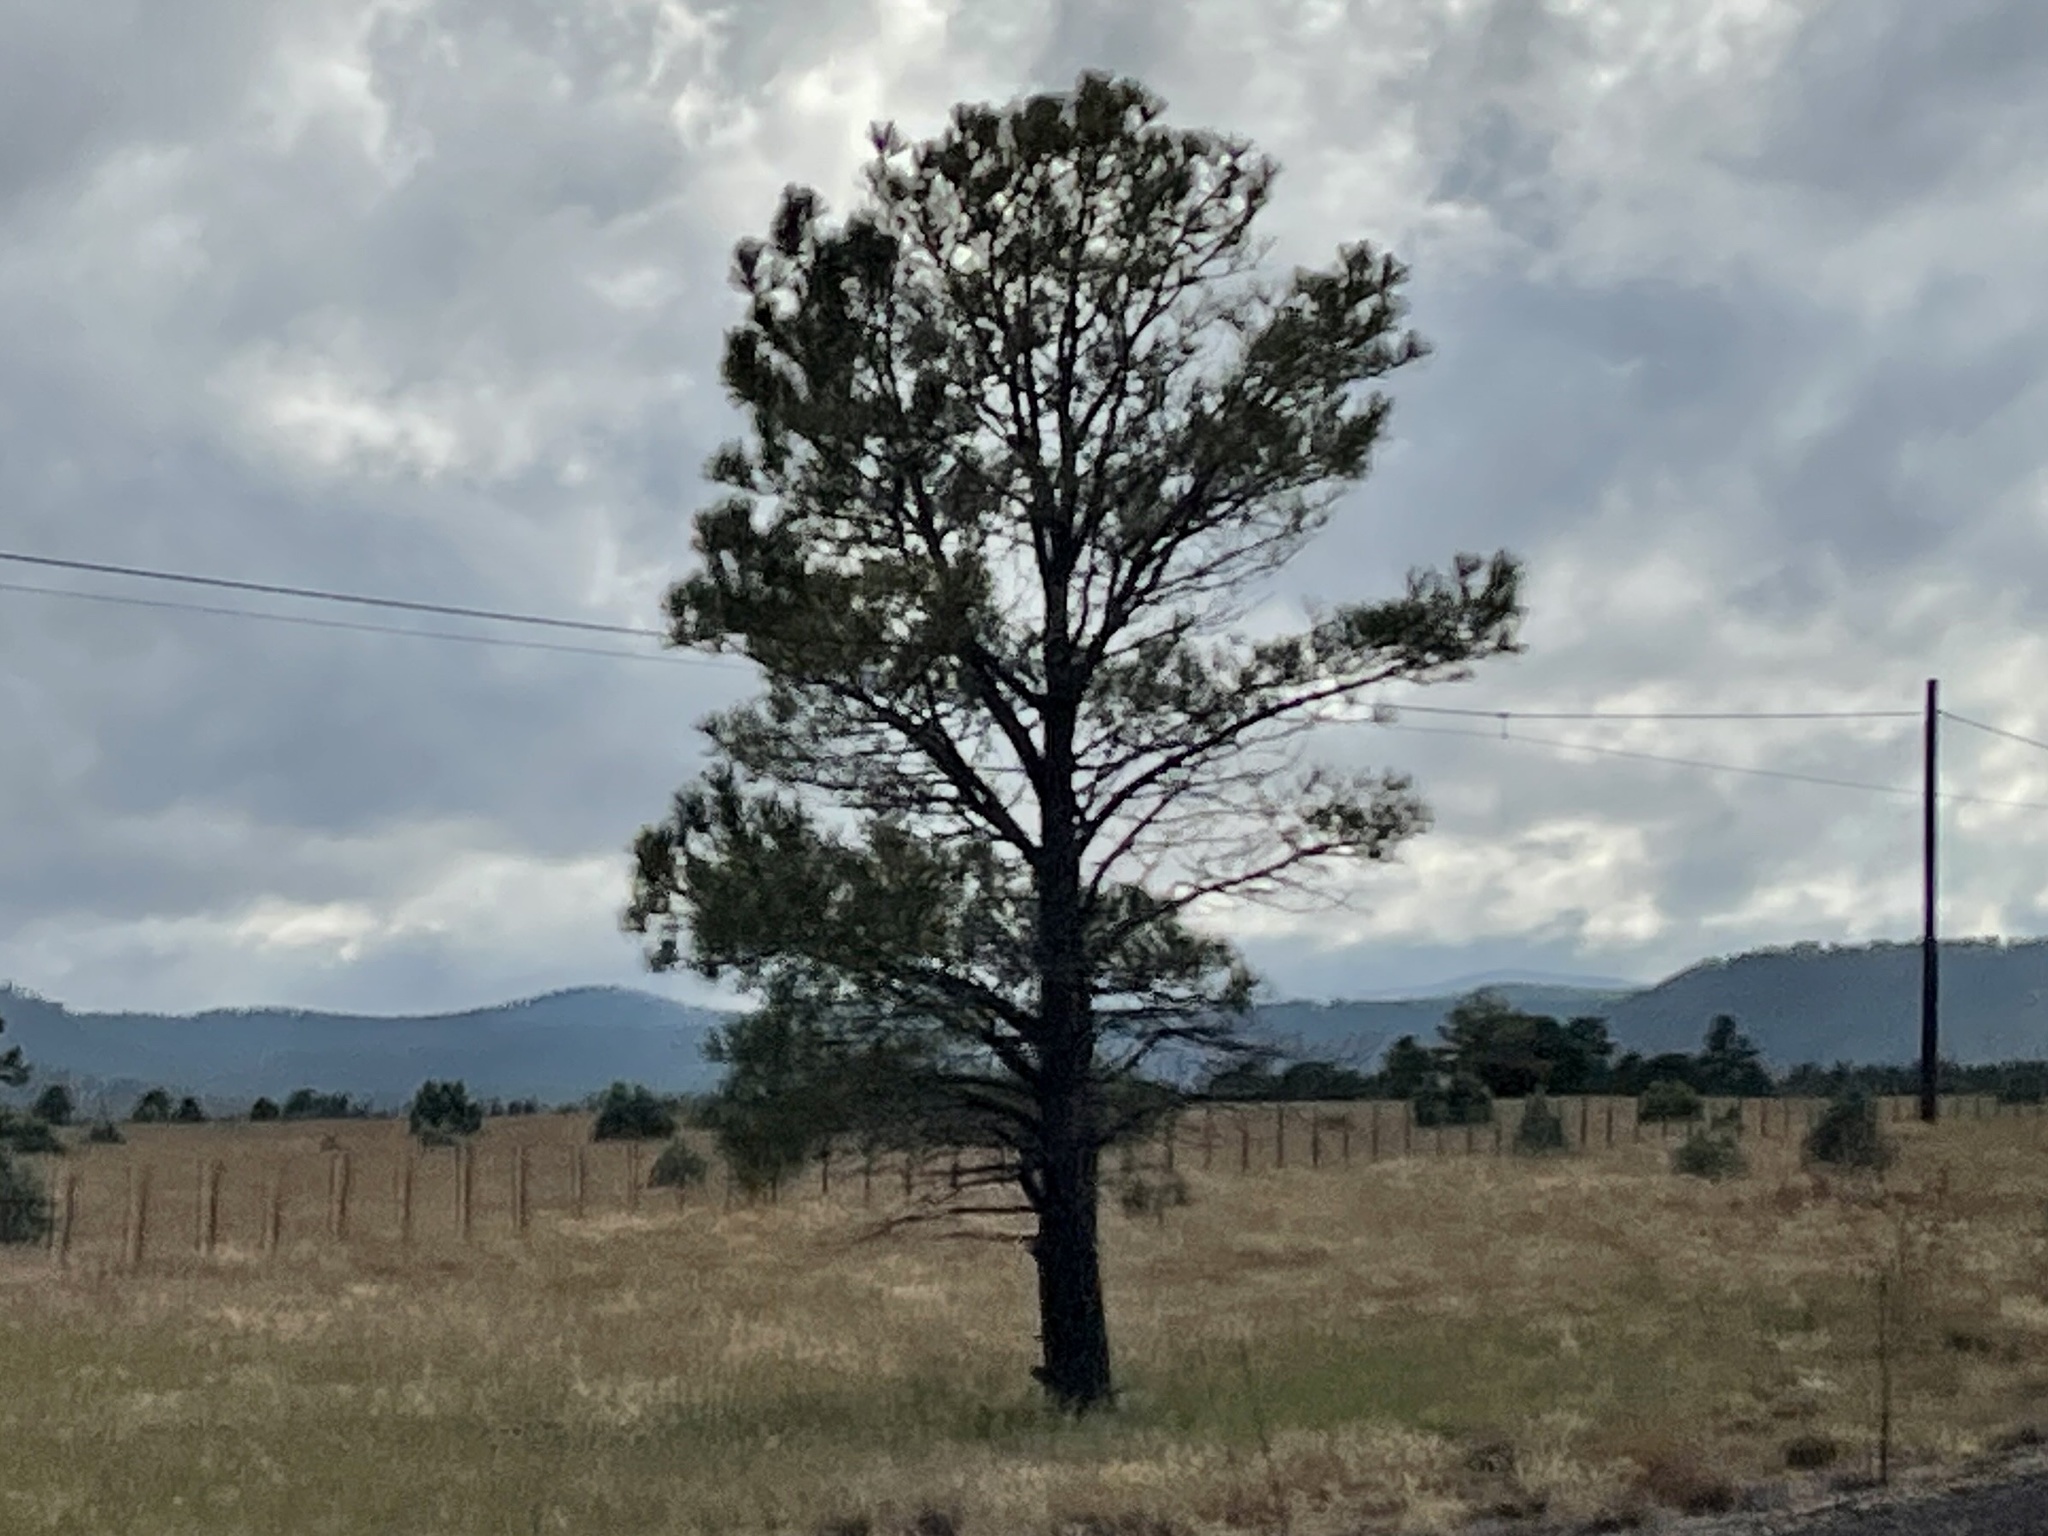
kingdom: Plantae
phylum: Tracheophyta
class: Pinopsida
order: Pinales
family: Pinaceae
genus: Pinus
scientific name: Pinus ponderosa
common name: Western yellow-pine
